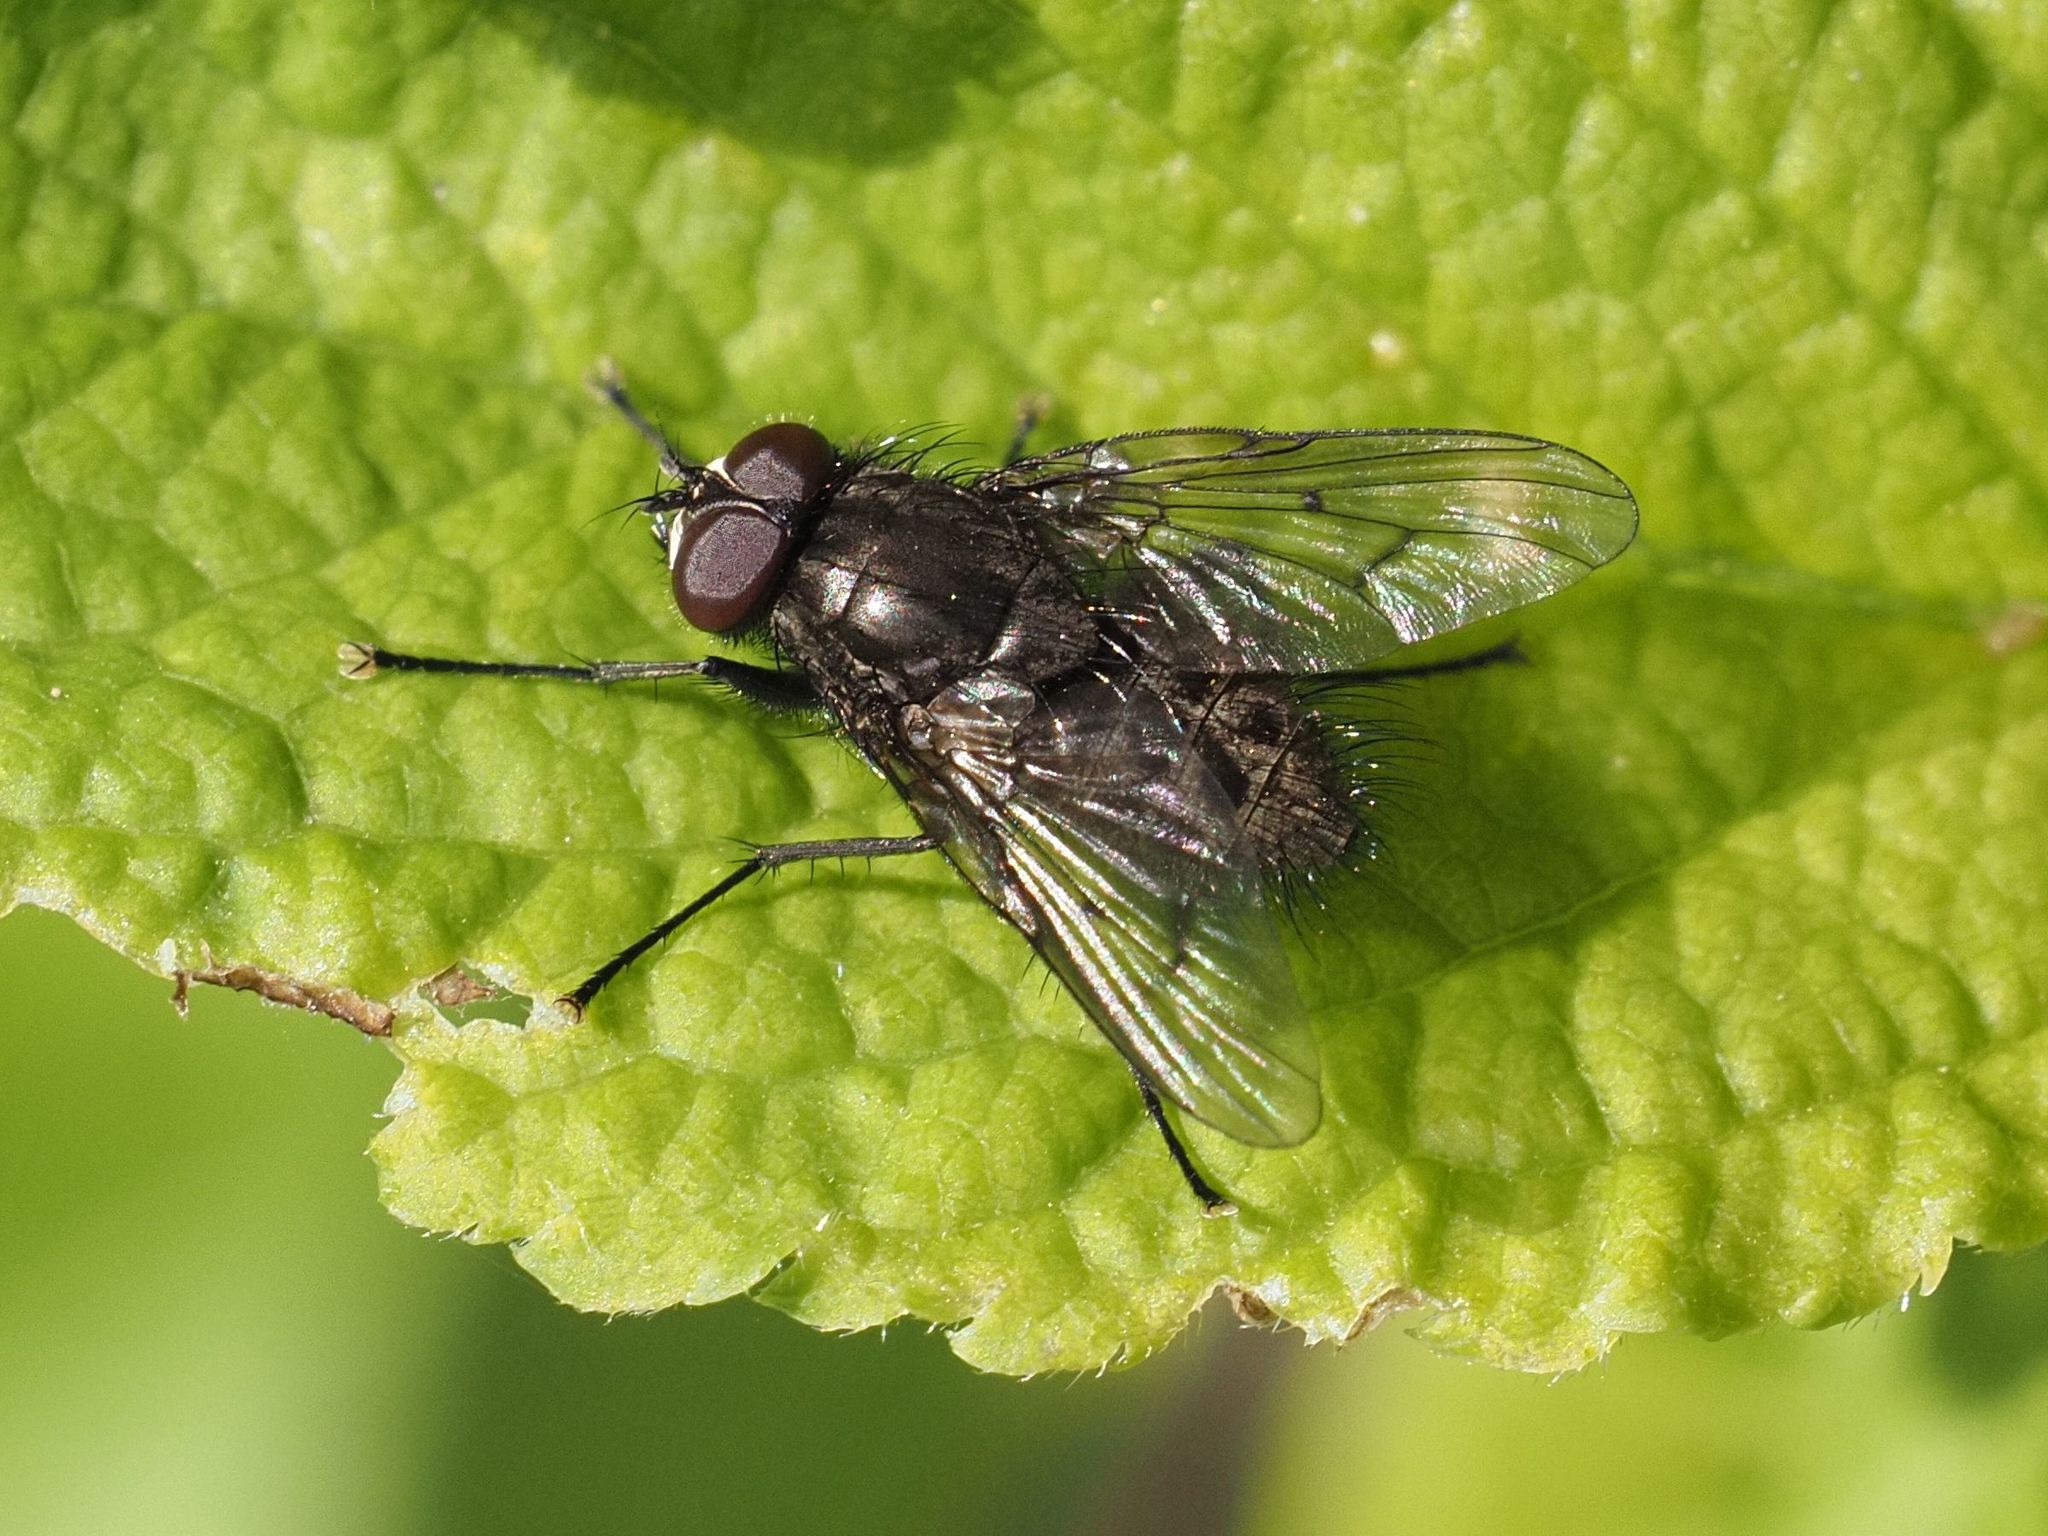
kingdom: Animalia
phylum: Arthropoda
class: Insecta
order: Diptera
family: Muscidae
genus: Helina
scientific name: Helina evecta
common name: Muscid fly
